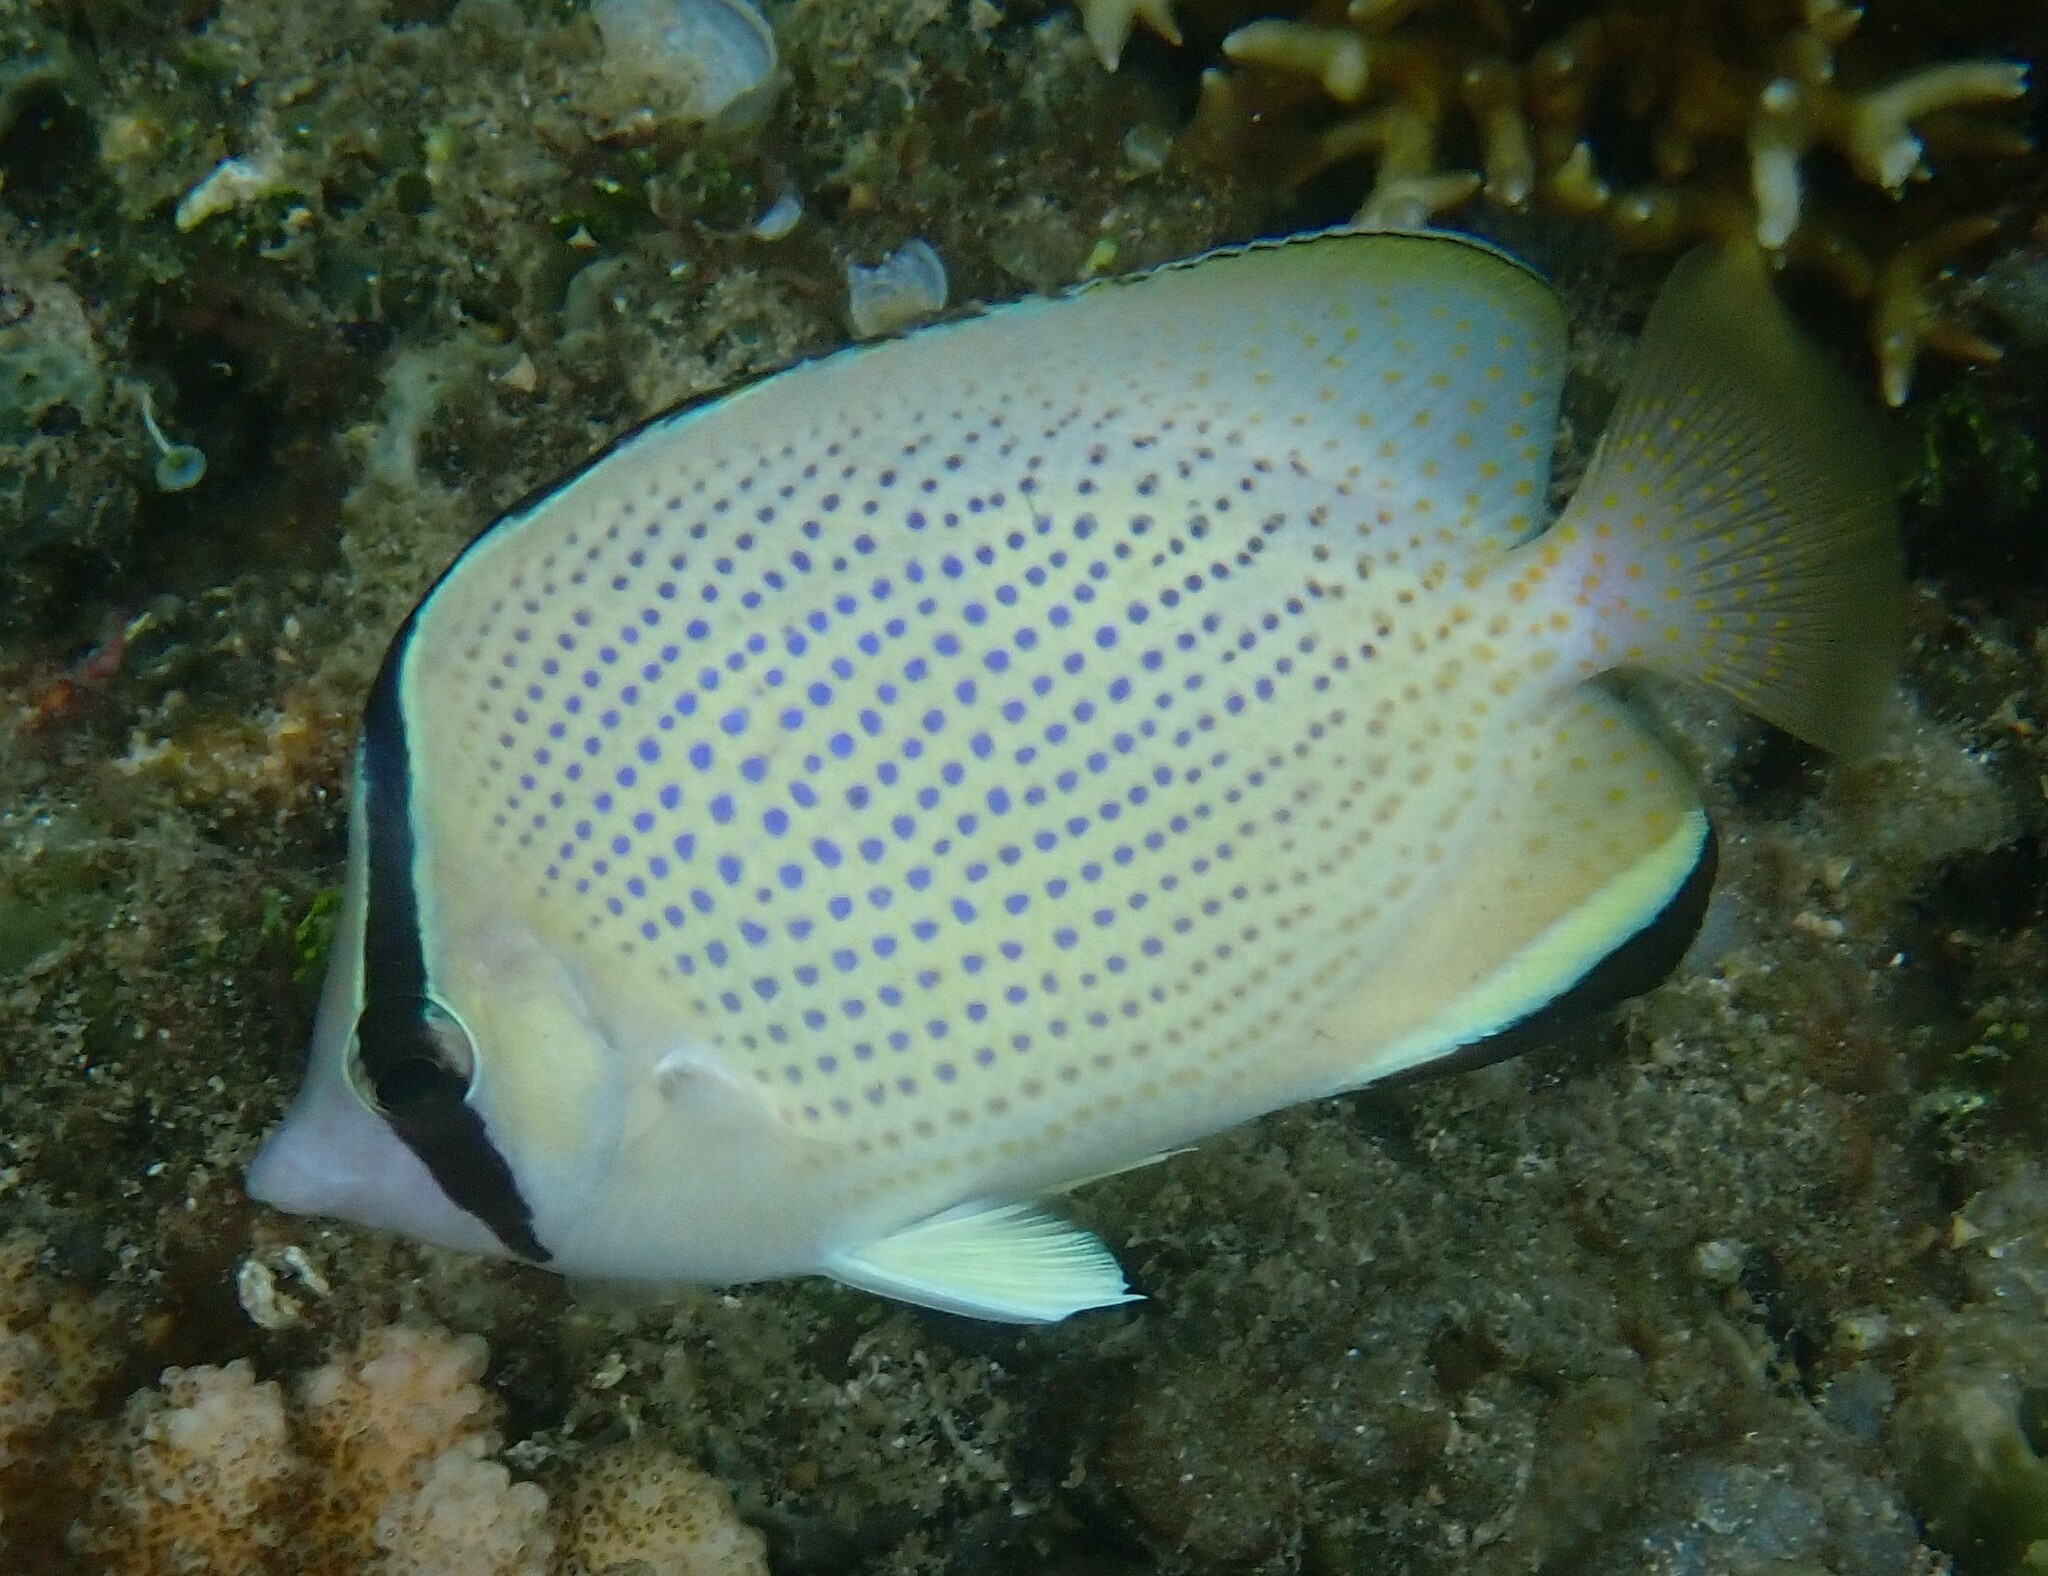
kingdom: Animalia
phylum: Chordata
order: Perciformes
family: Chaetodontidae
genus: Chaetodon
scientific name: Chaetodon citrinellus
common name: Speckled butterflyfish
